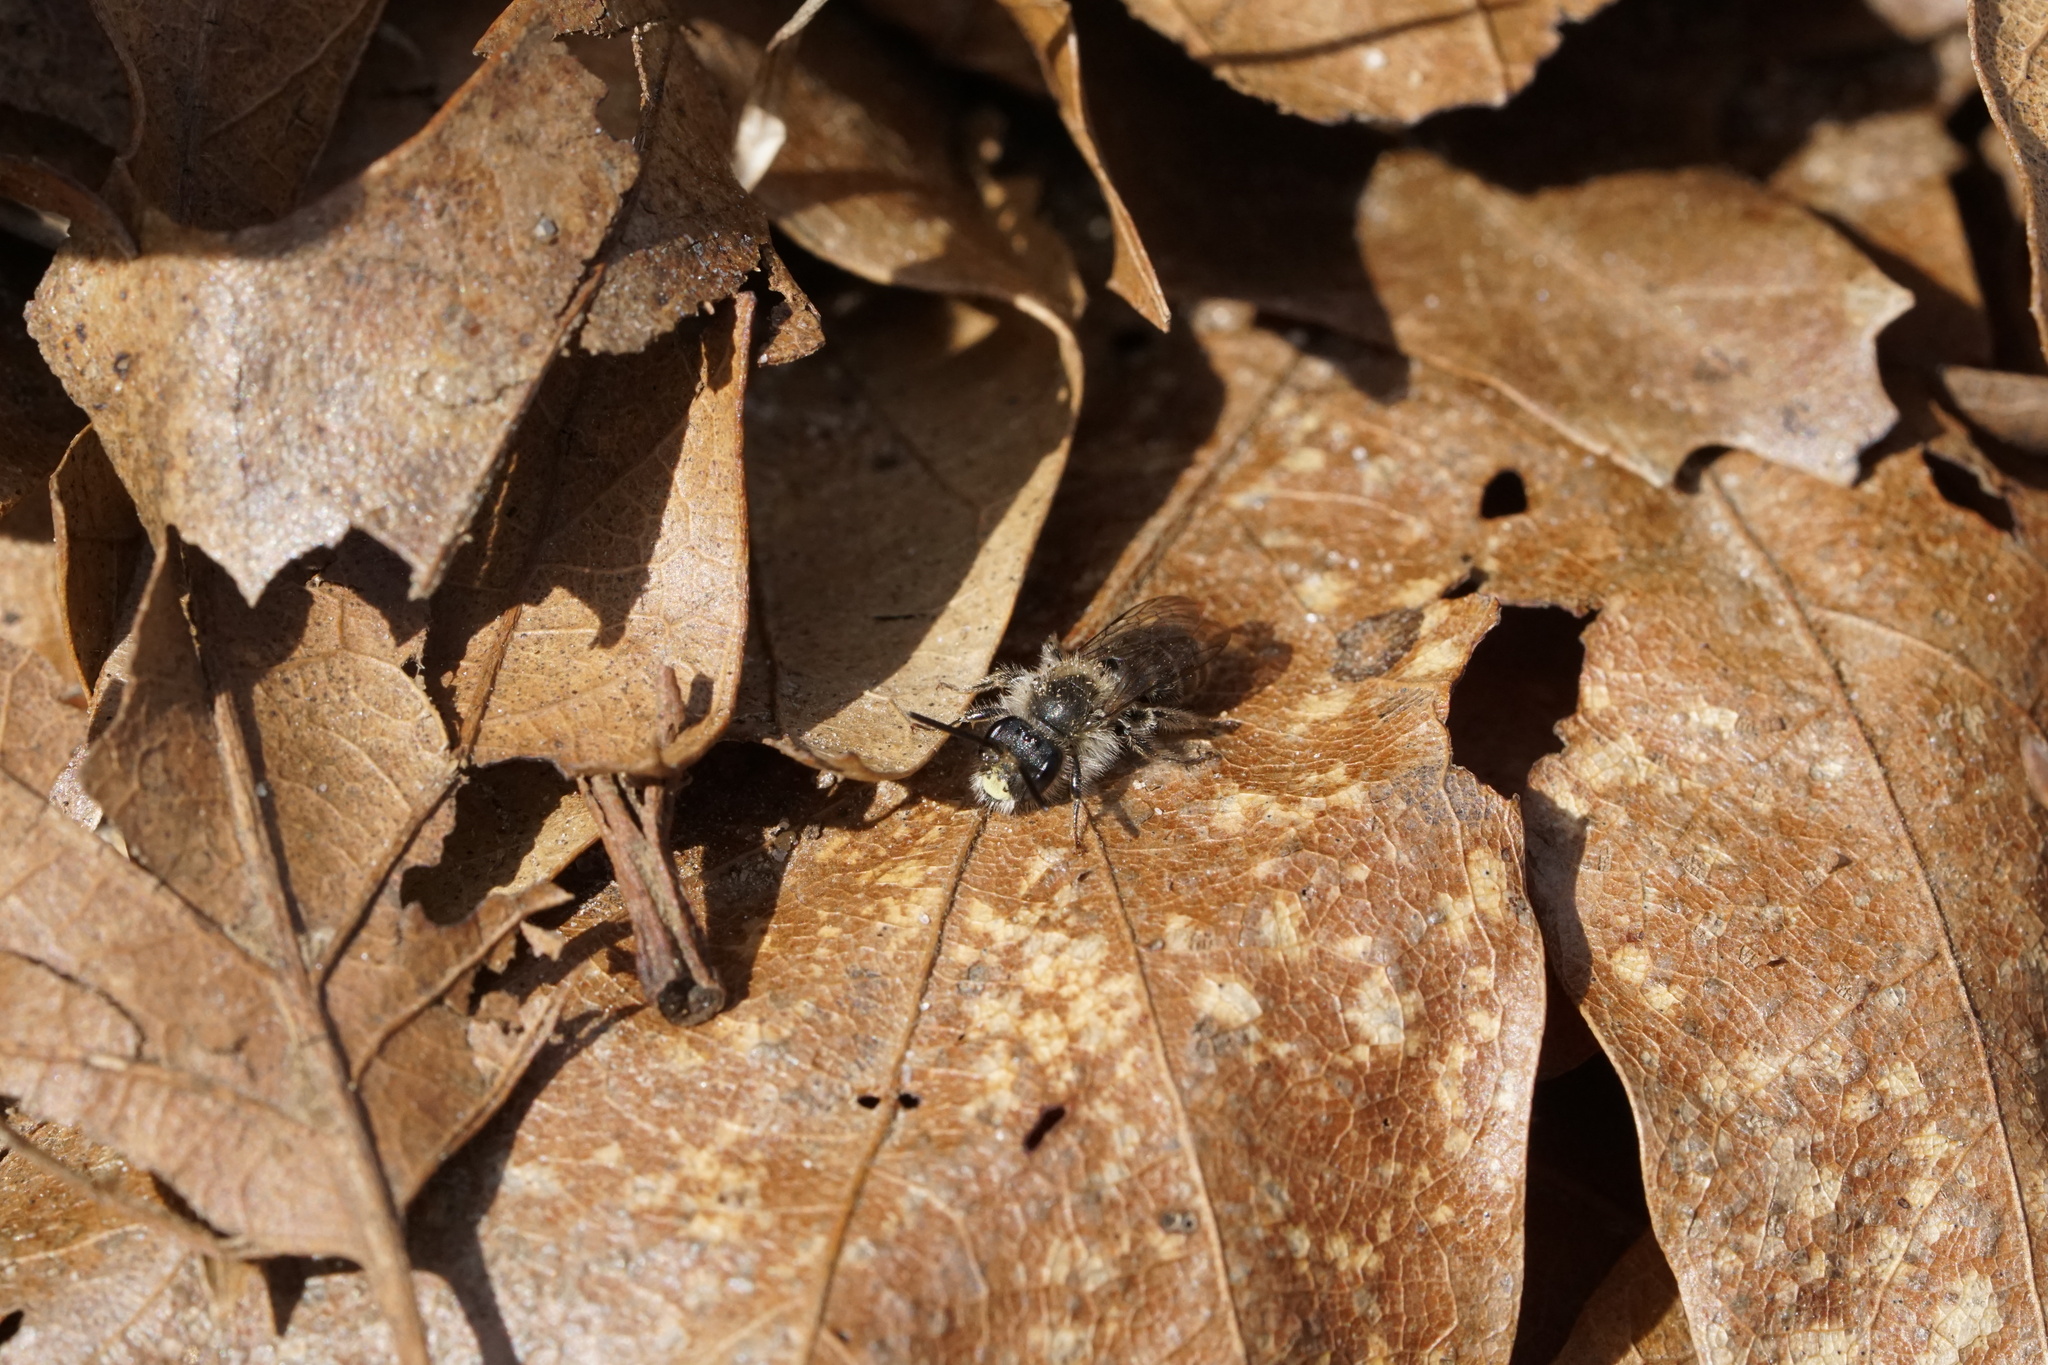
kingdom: Animalia
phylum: Arthropoda
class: Insecta
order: Hymenoptera
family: Andrenidae
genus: Andrena
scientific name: Andrena bradleyi
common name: Bradley's mining bee
